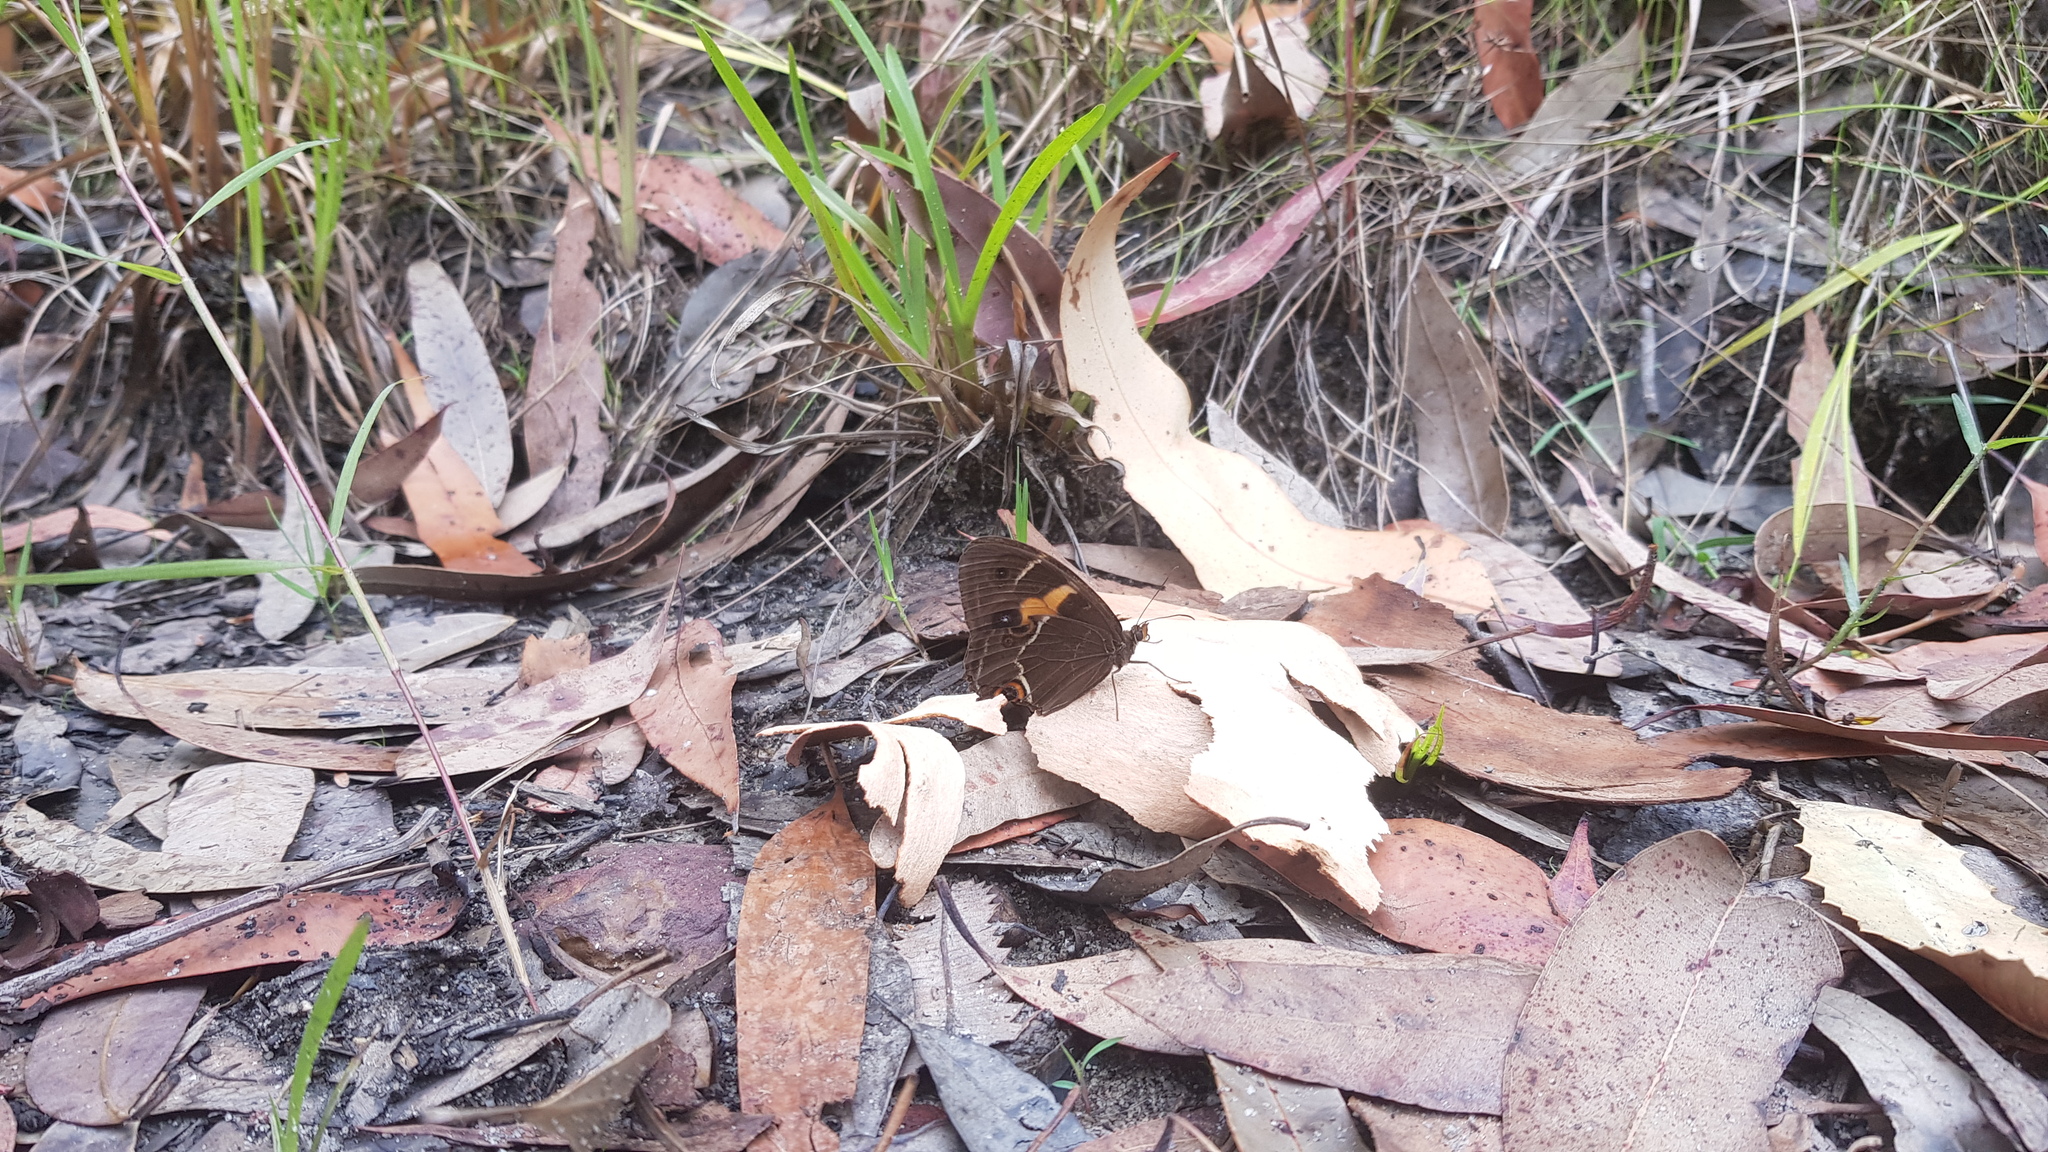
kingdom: Animalia
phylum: Arthropoda
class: Insecta
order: Lepidoptera
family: Nymphalidae
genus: Tisiphone
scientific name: Tisiphone abeona
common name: Swordgrass brown
